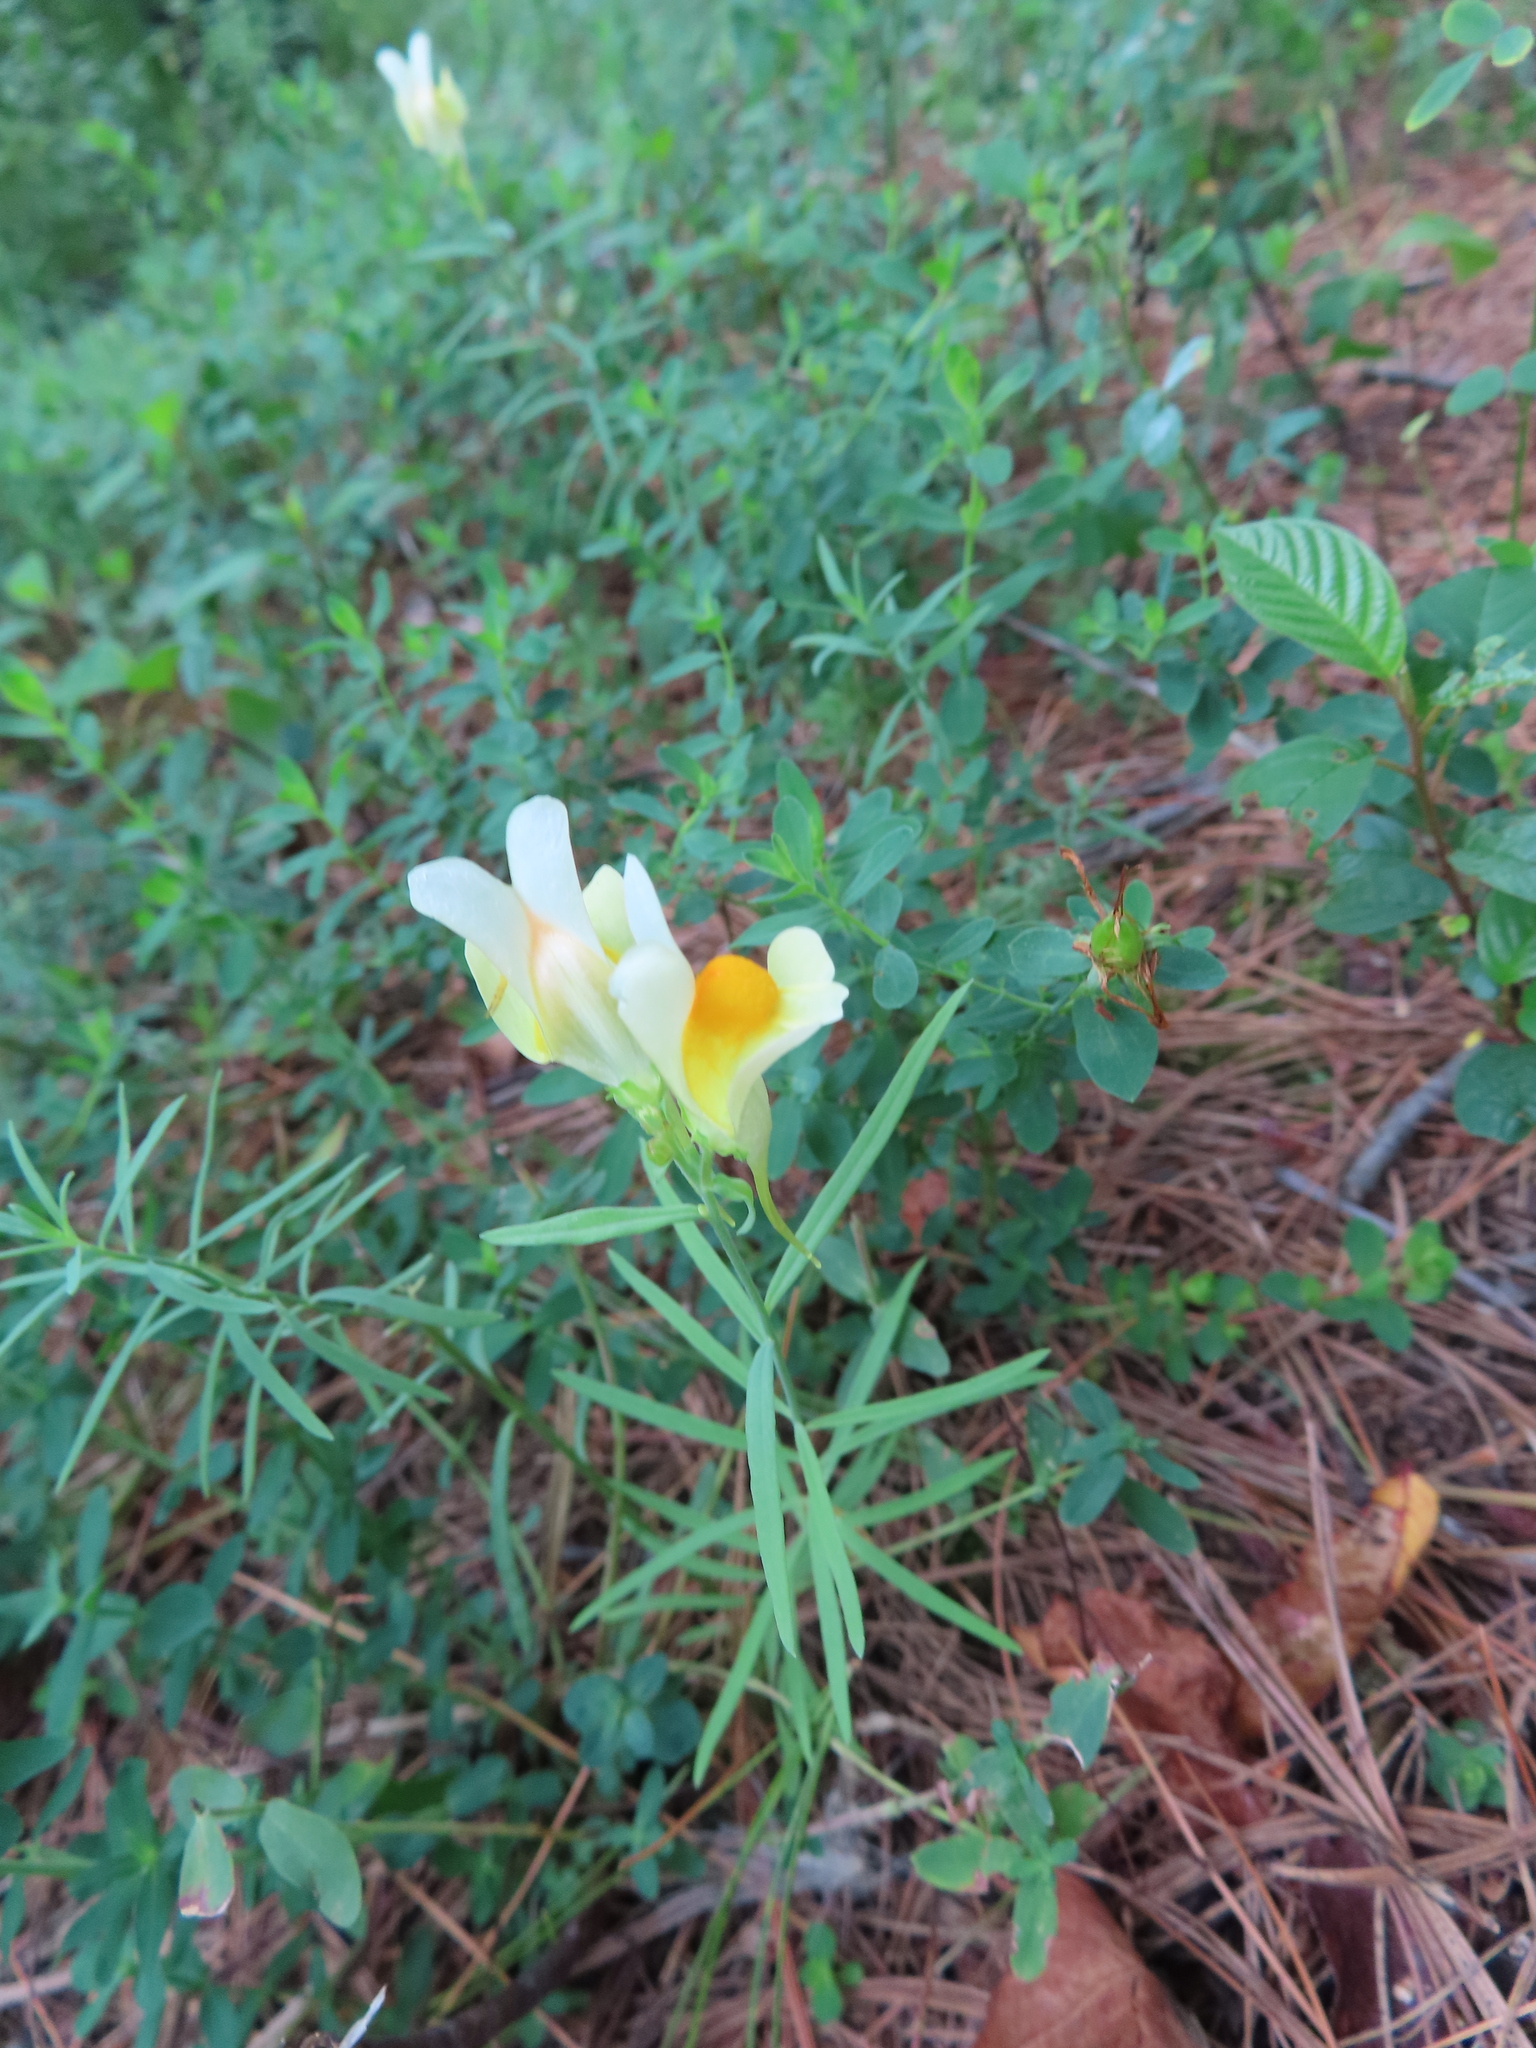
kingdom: Plantae
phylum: Tracheophyta
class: Magnoliopsida
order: Lamiales
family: Plantaginaceae
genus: Linaria
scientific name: Linaria vulgaris
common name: Butter and eggs
